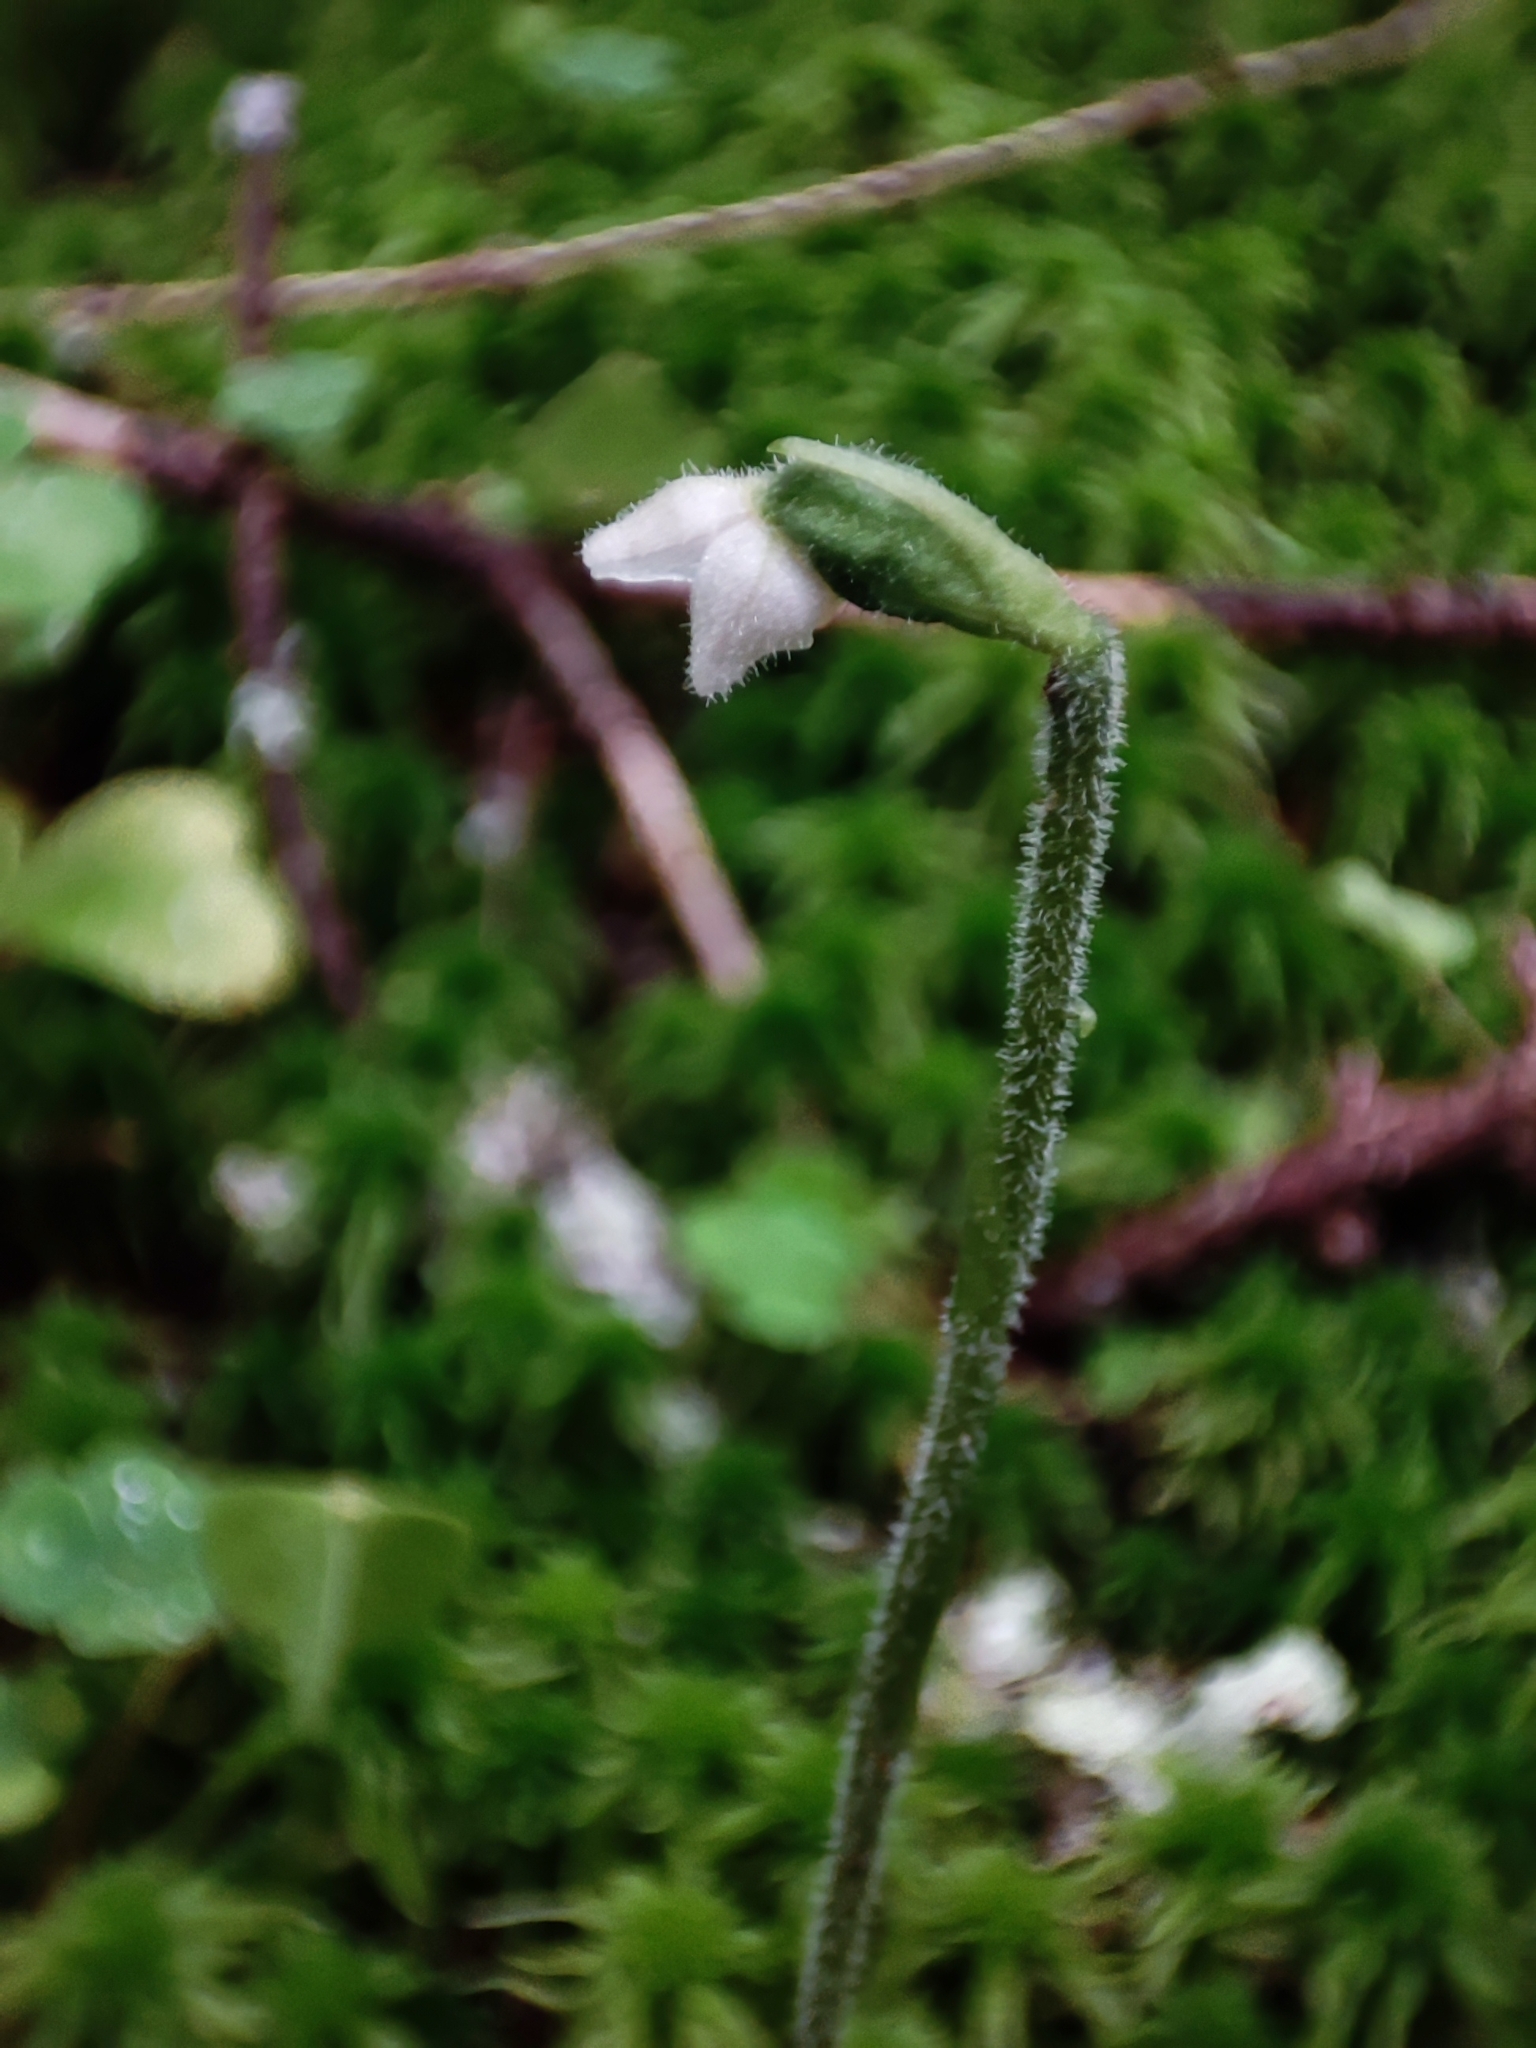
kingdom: Plantae
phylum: Tracheophyta
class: Liliopsida
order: Asparagales
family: Orchidaceae
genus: Goodyera
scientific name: Goodyera repens
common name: Creeping lady's-tresses
